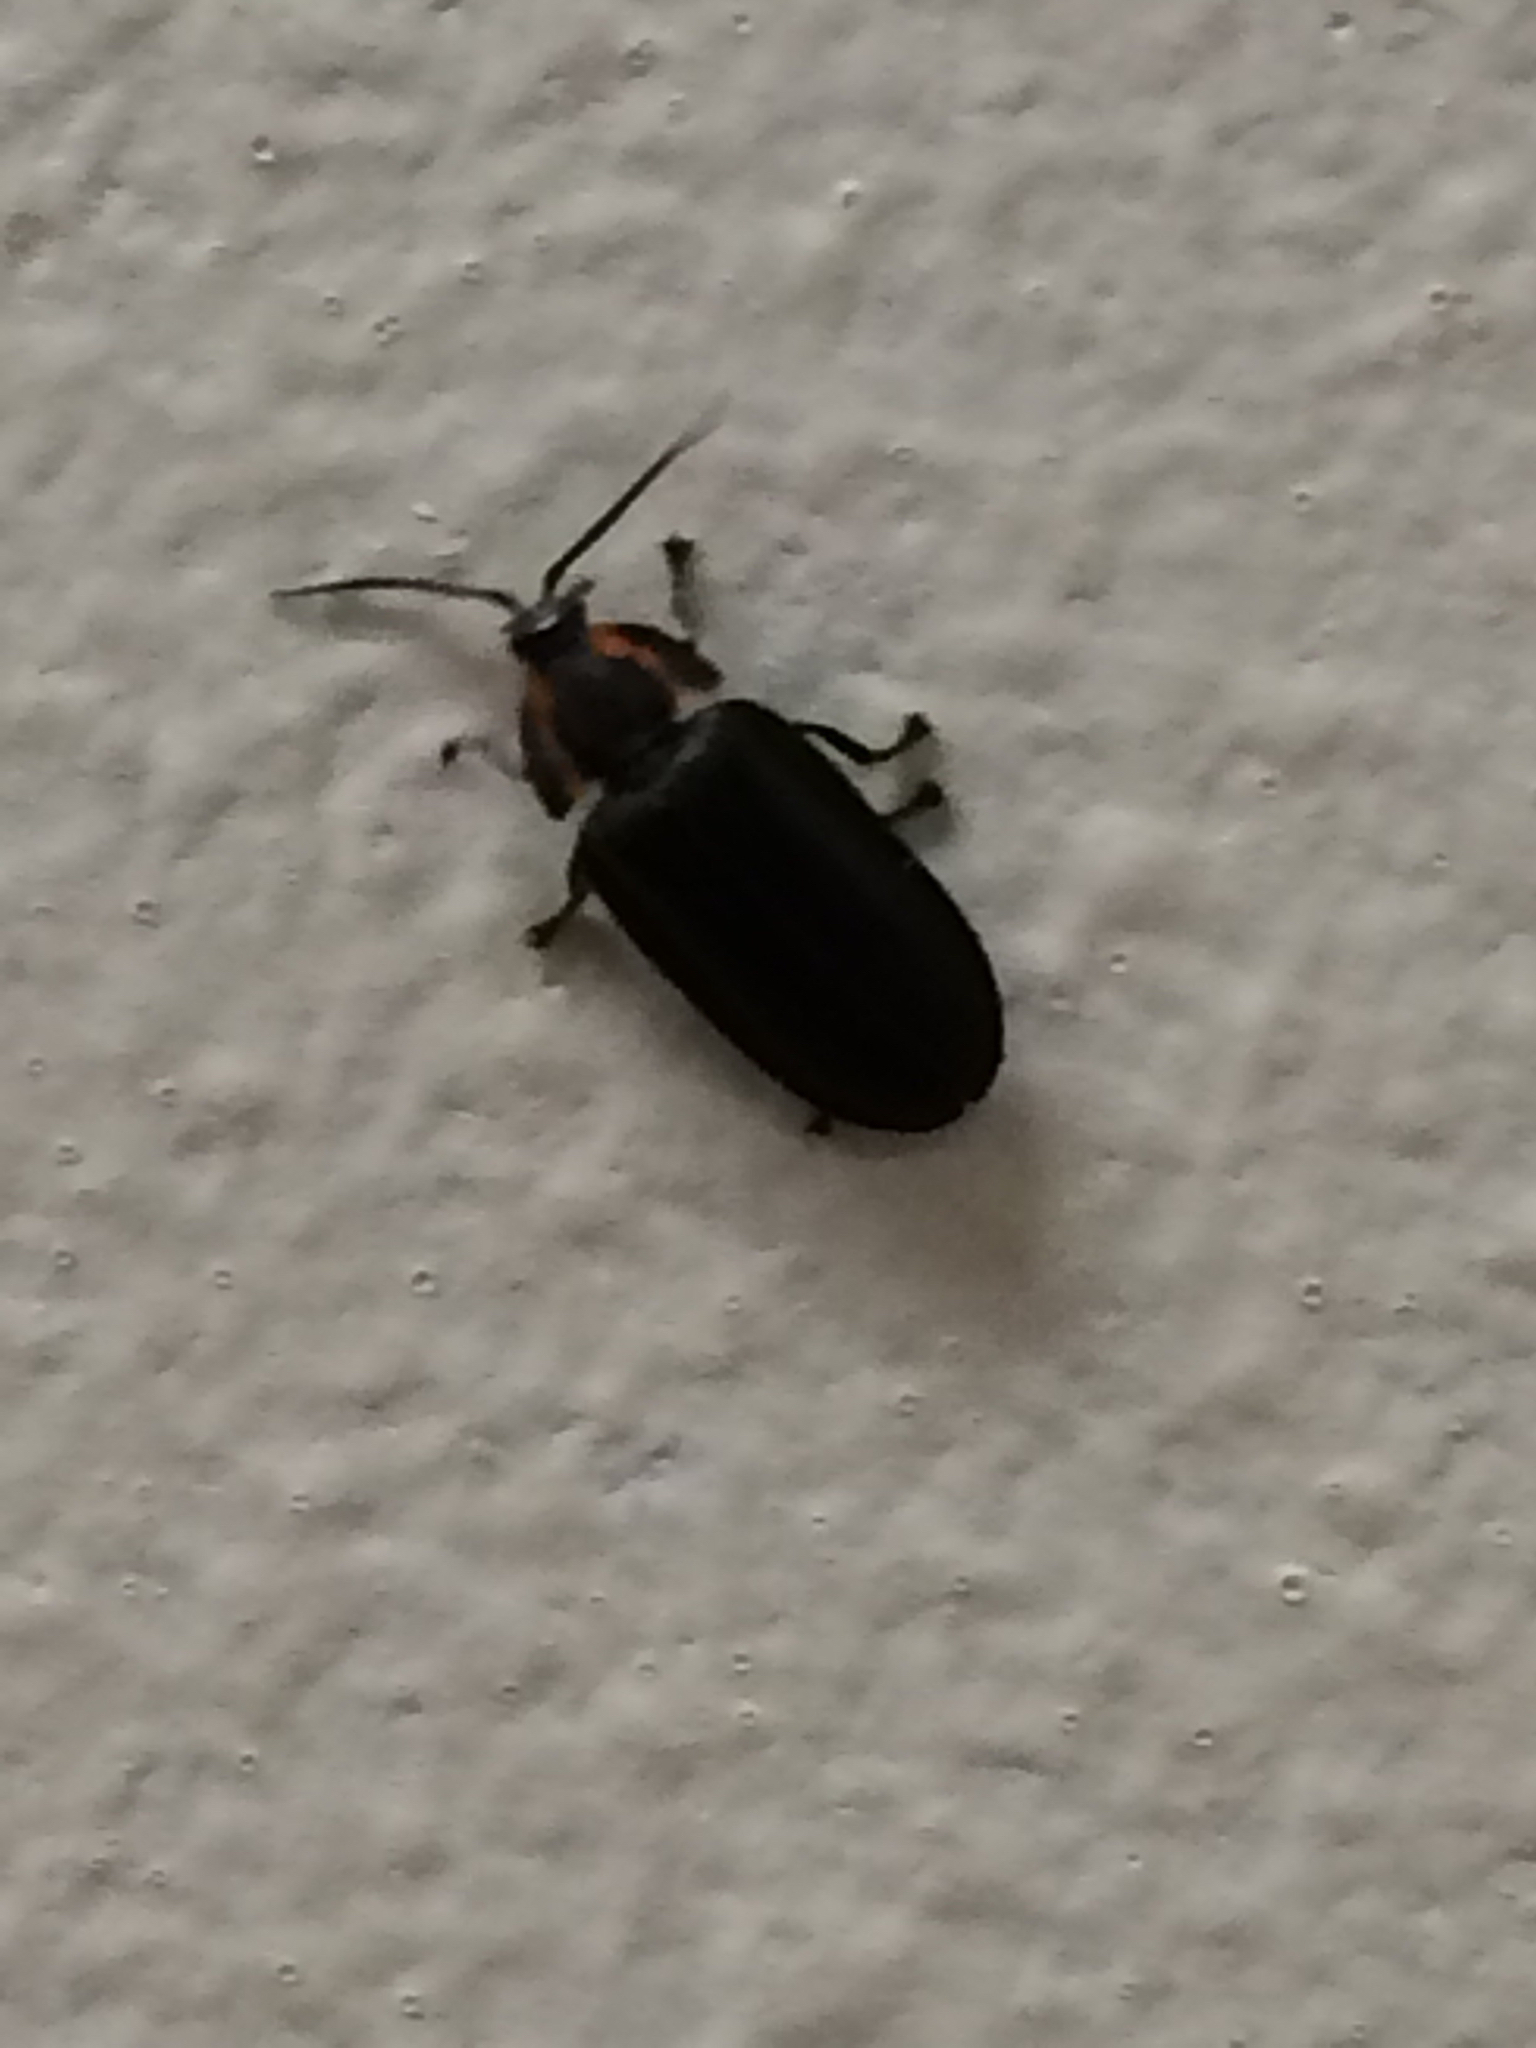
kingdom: Animalia
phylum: Arthropoda
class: Insecta
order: Coleoptera
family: Lampyridae
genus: Photinus
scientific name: Photinus corrusca
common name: Winter firefly
